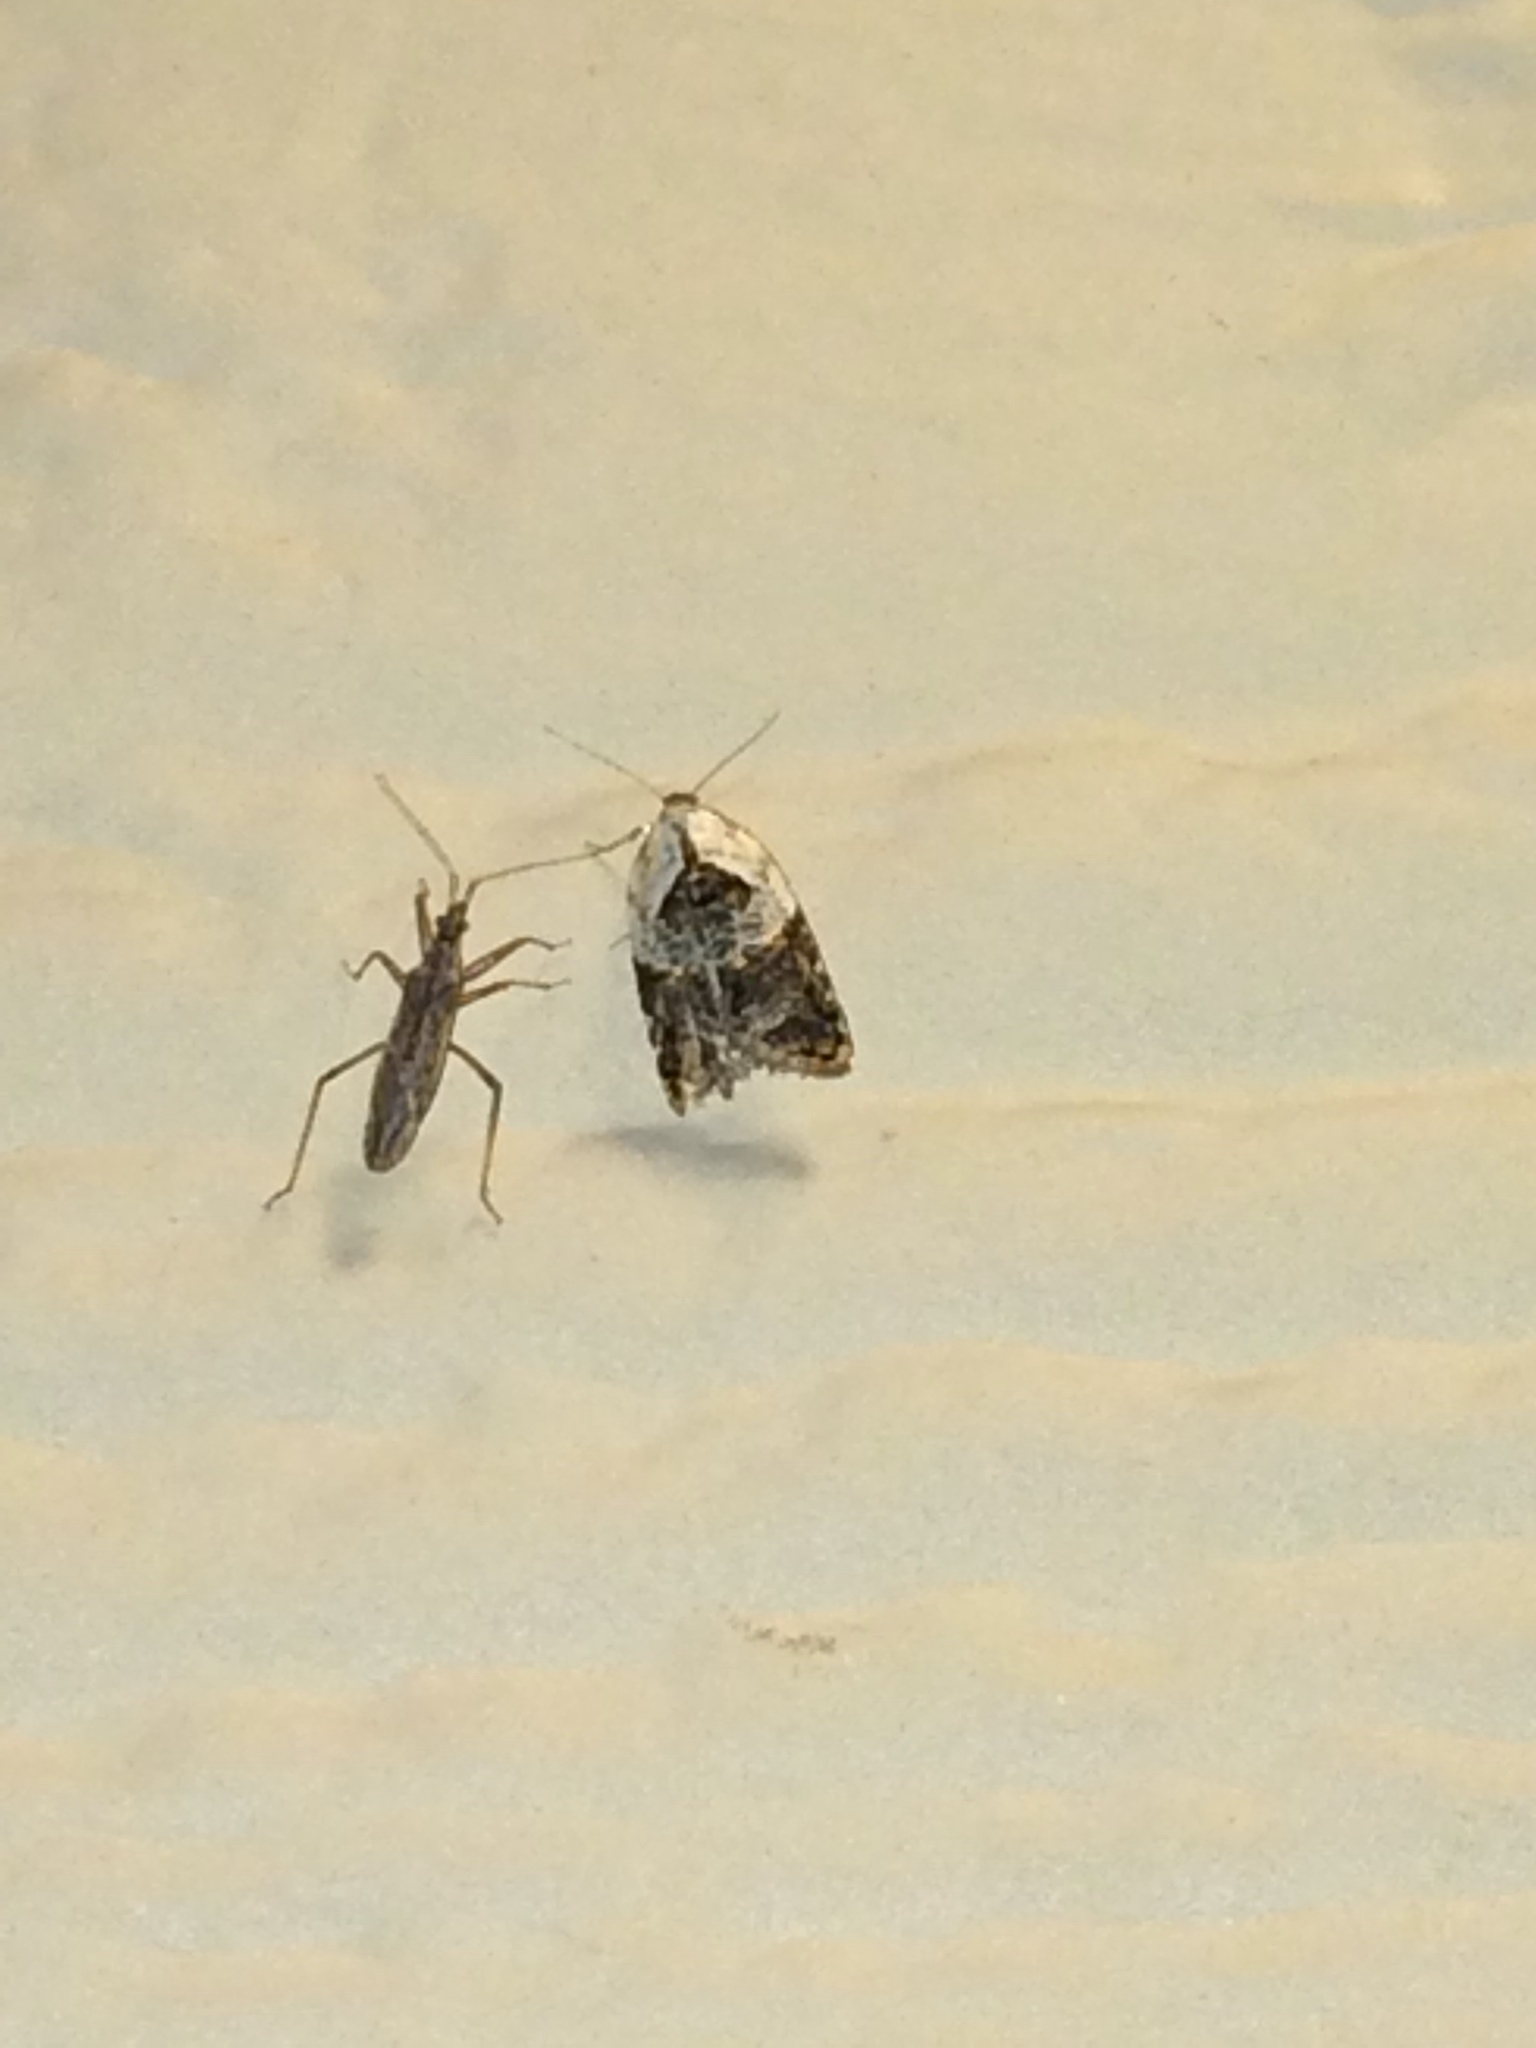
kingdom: Animalia
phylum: Arthropoda
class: Insecta
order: Lepidoptera
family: Tortricidae
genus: Acleris
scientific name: Acleris variegana
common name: Garden rose tortrix
